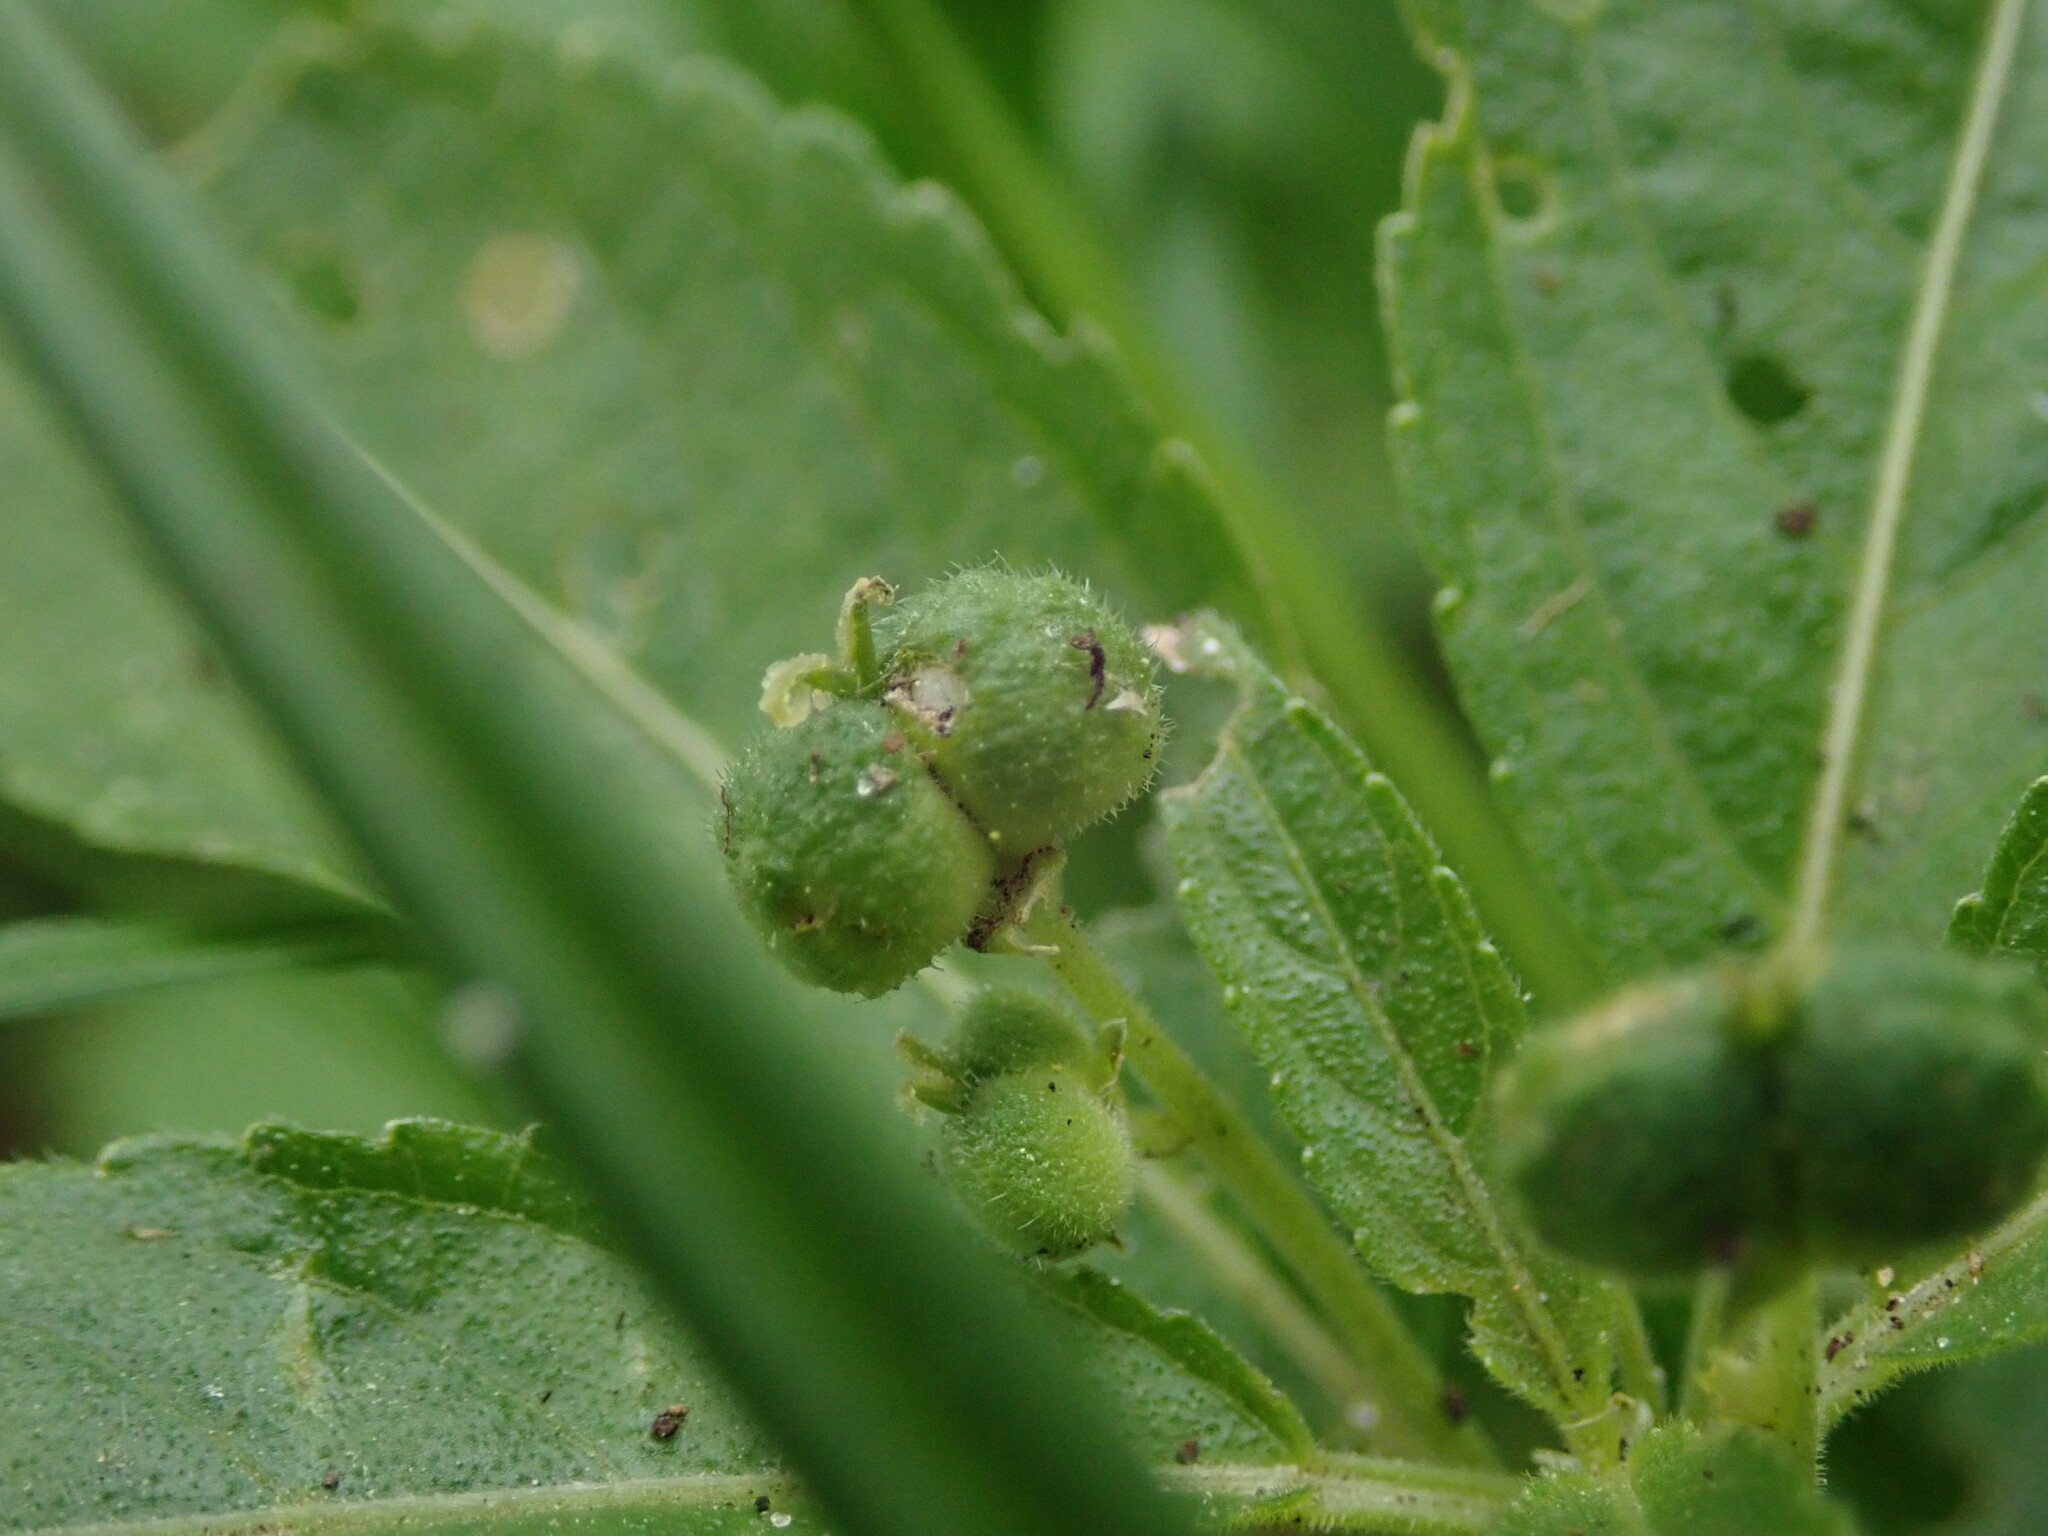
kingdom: Plantae
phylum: Tracheophyta
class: Magnoliopsida
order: Malpighiales
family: Euphorbiaceae
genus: Mercurialis
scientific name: Mercurialis perennis
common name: Dog mercury
